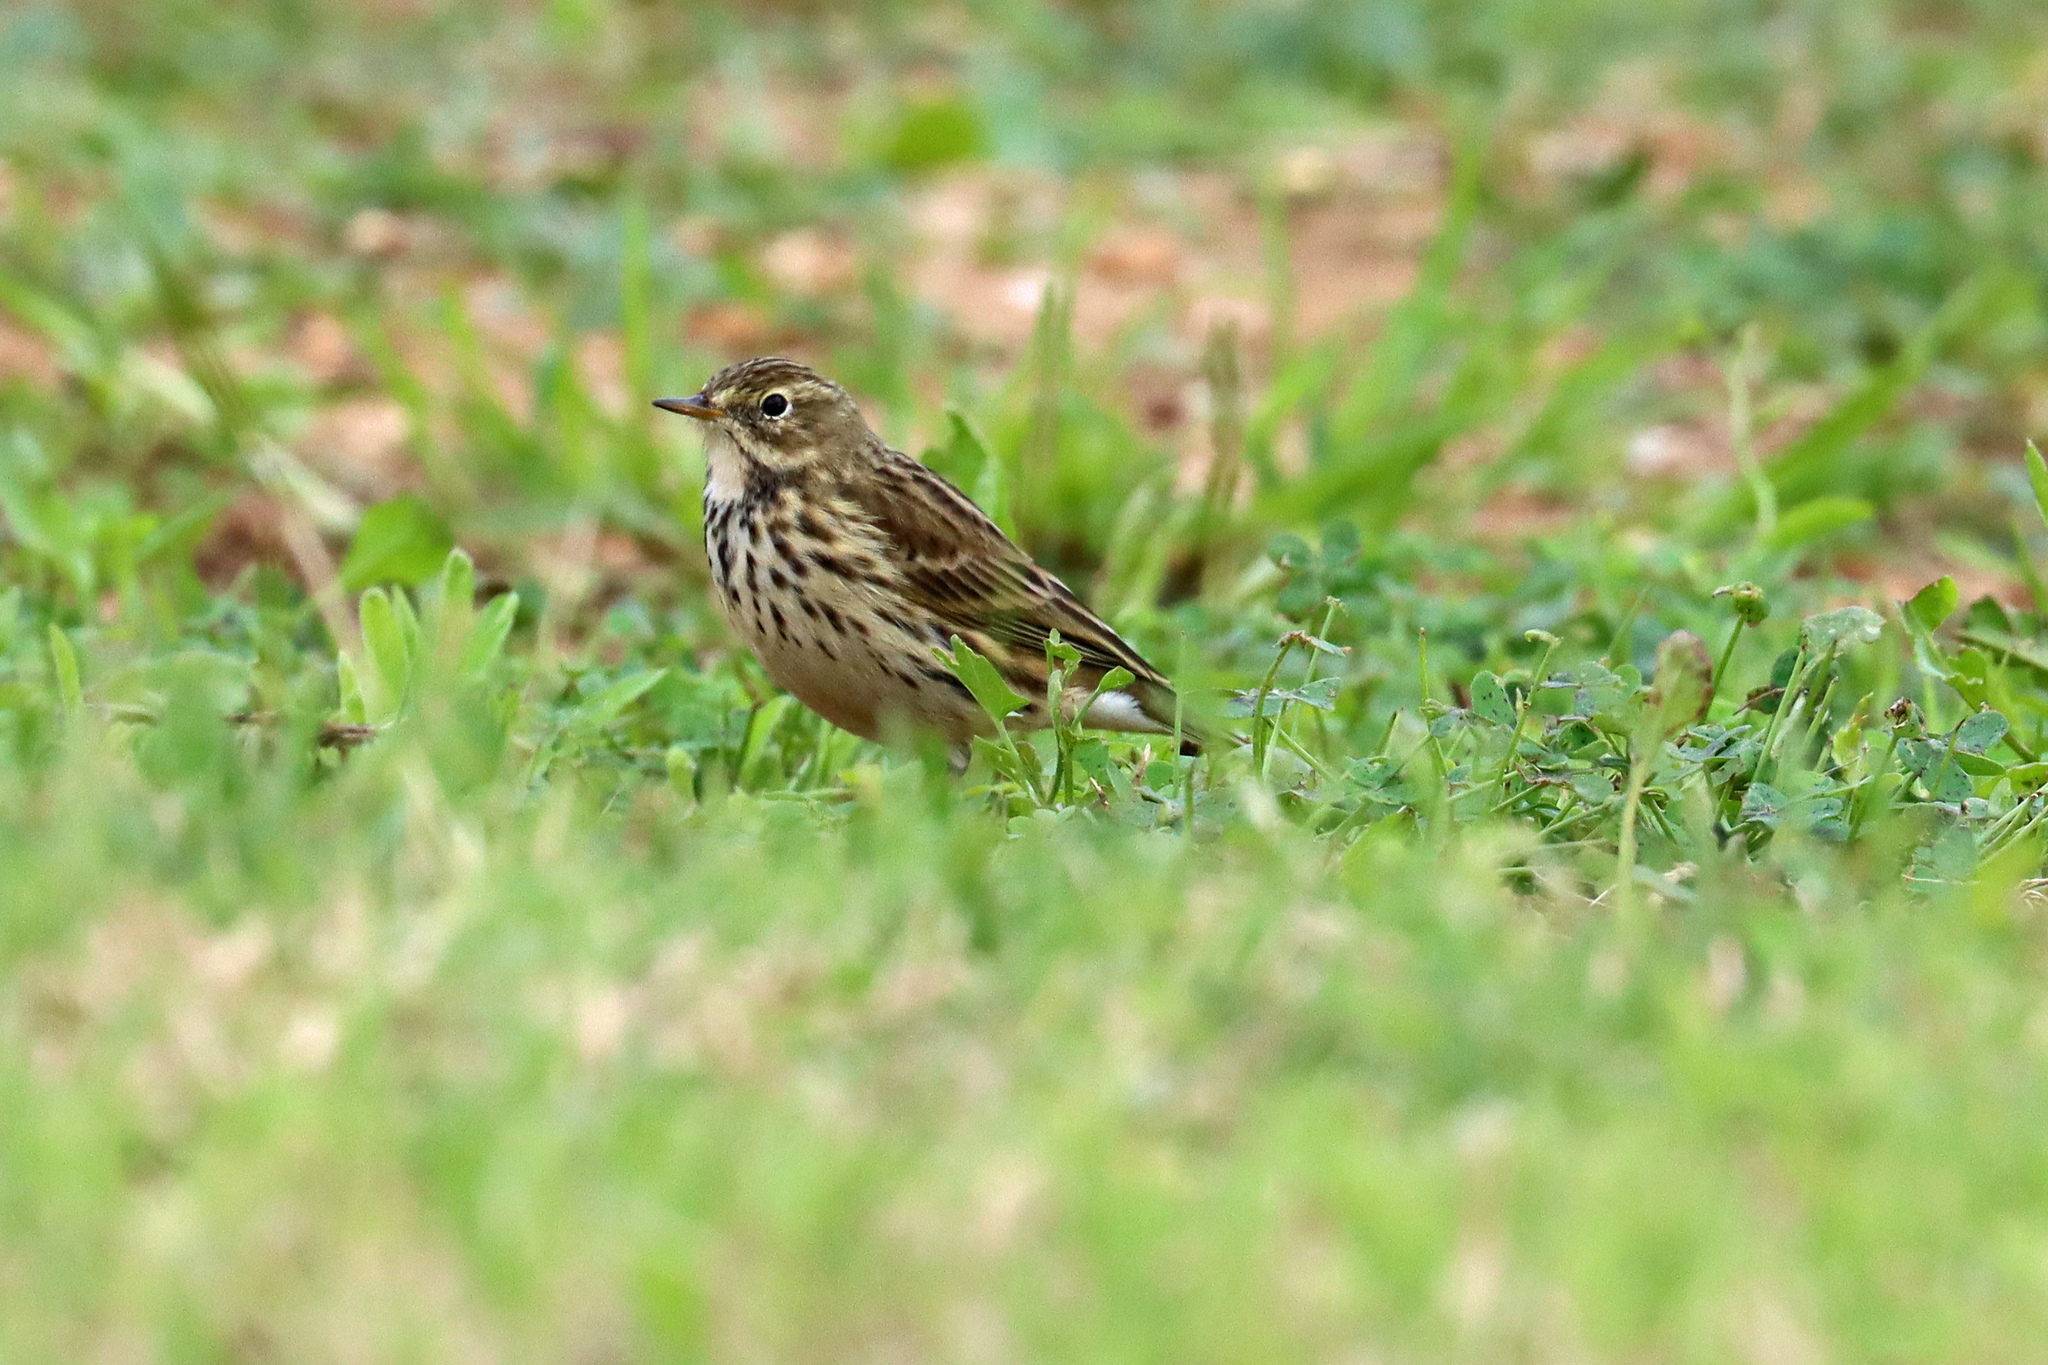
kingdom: Animalia
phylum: Chordata
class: Aves
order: Passeriformes
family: Motacillidae
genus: Anthus
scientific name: Anthus pratensis
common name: Meadow pipit
